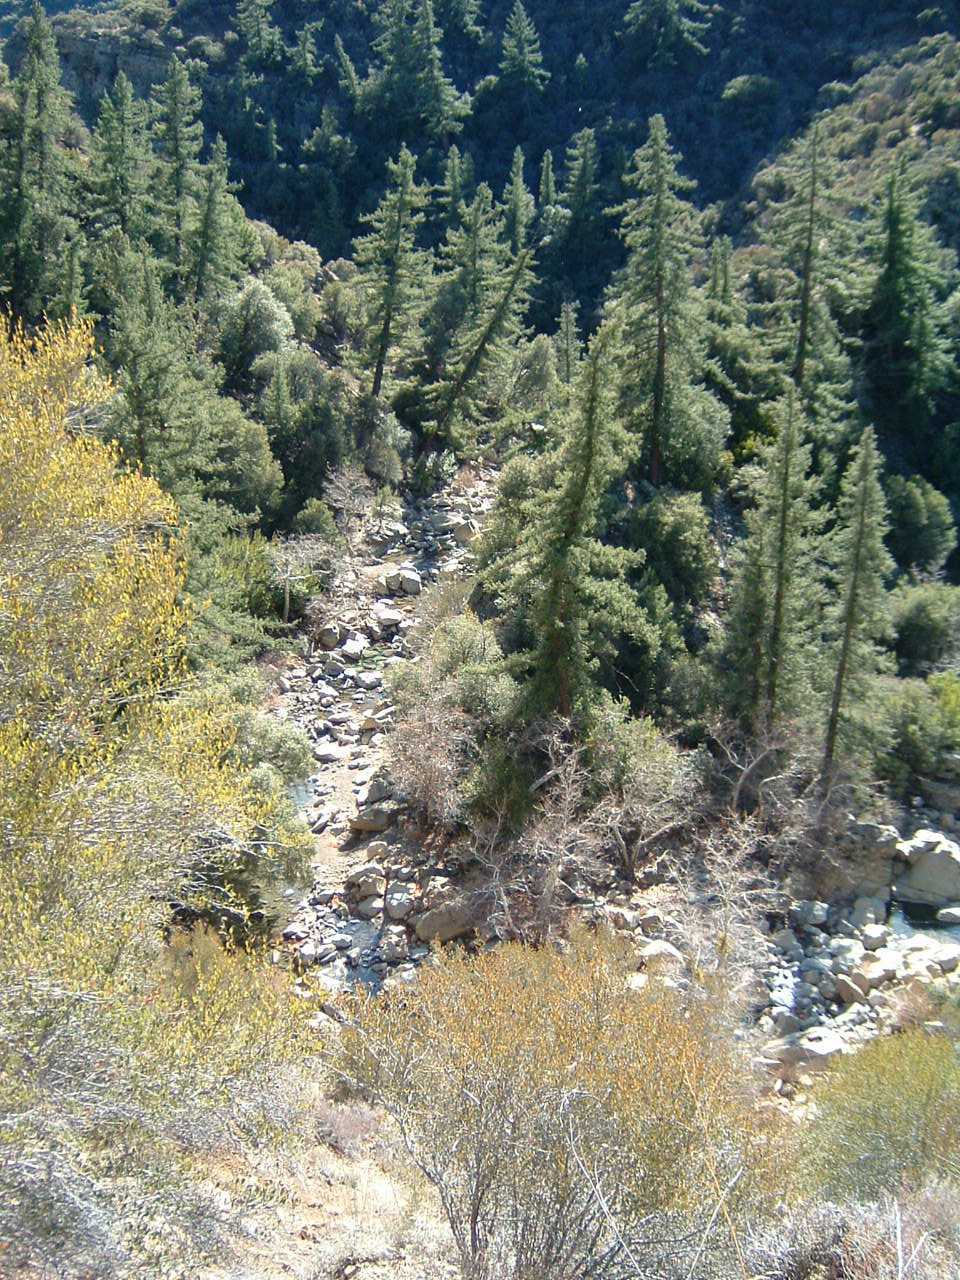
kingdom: Plantae
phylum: Tracheophyta
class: Pinopsida
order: Pinales
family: Pinaceae
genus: Pseudotsuga
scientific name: Pseudotsuga macrocarpa
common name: Big-cone douglas-fir
